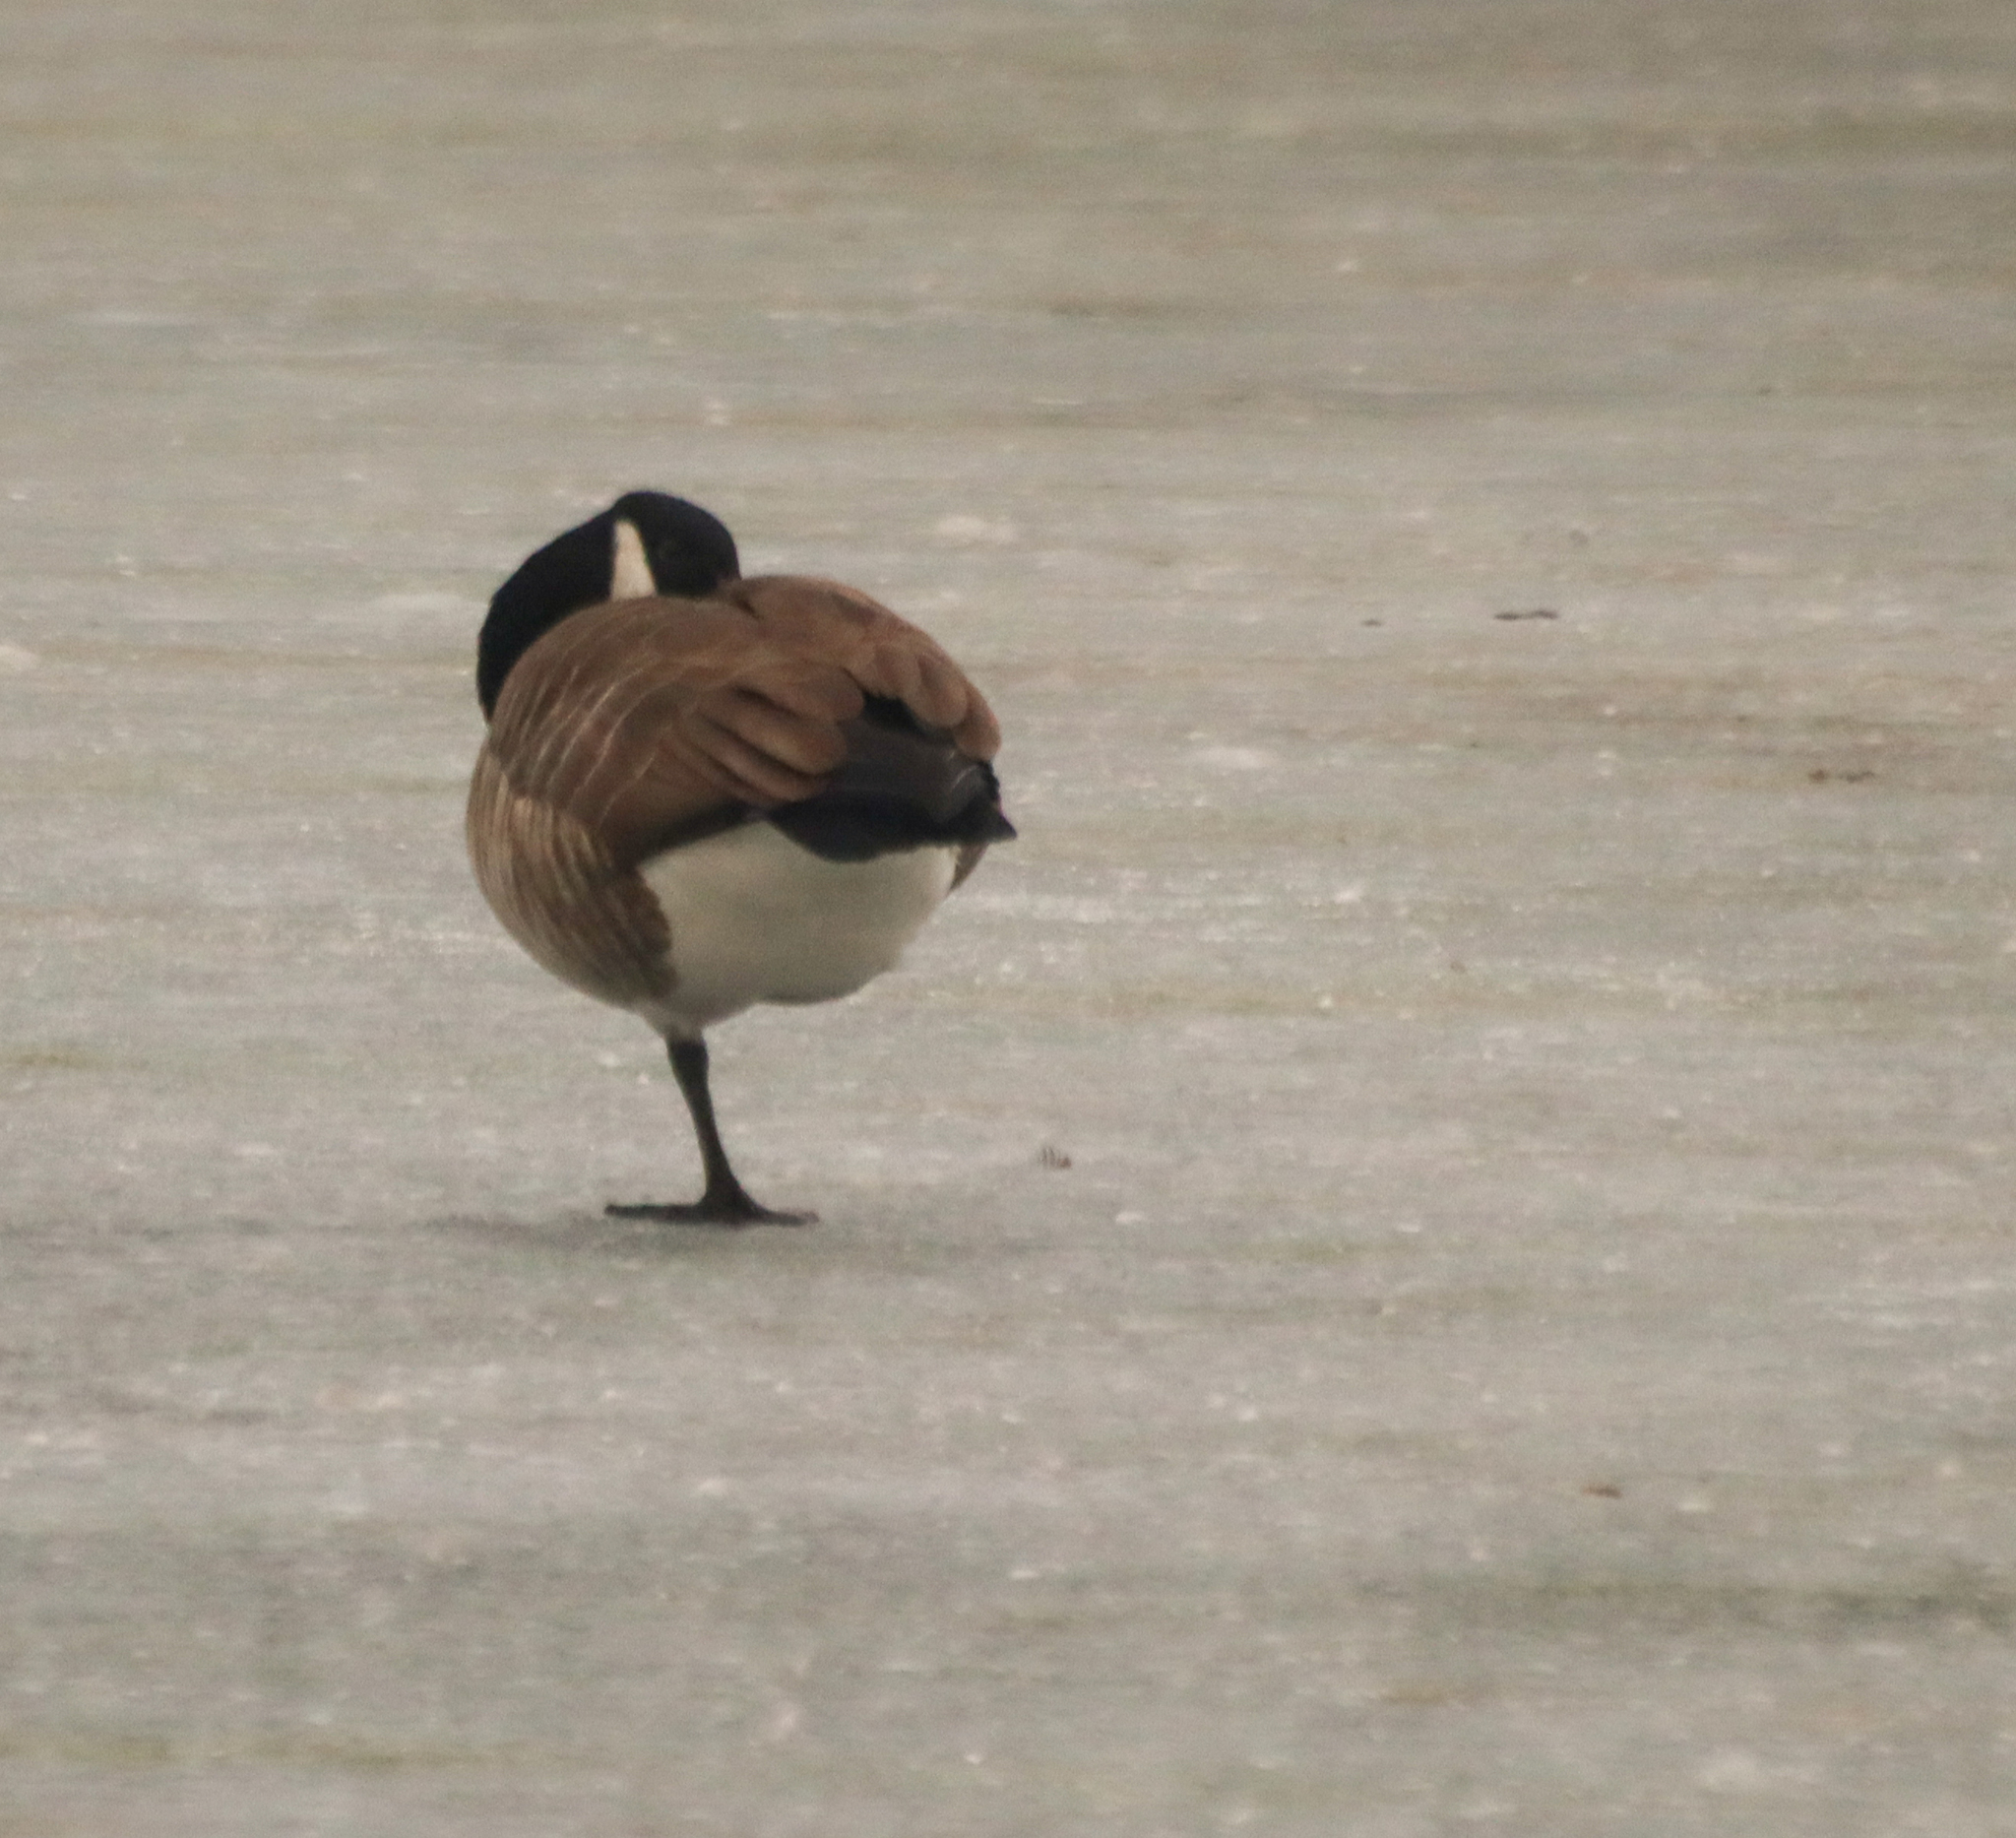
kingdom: Animalia
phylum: Chordata
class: Aves
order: Anseriformes
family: Anatidae
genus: Branta
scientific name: Branta canadensis
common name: Canada goose
